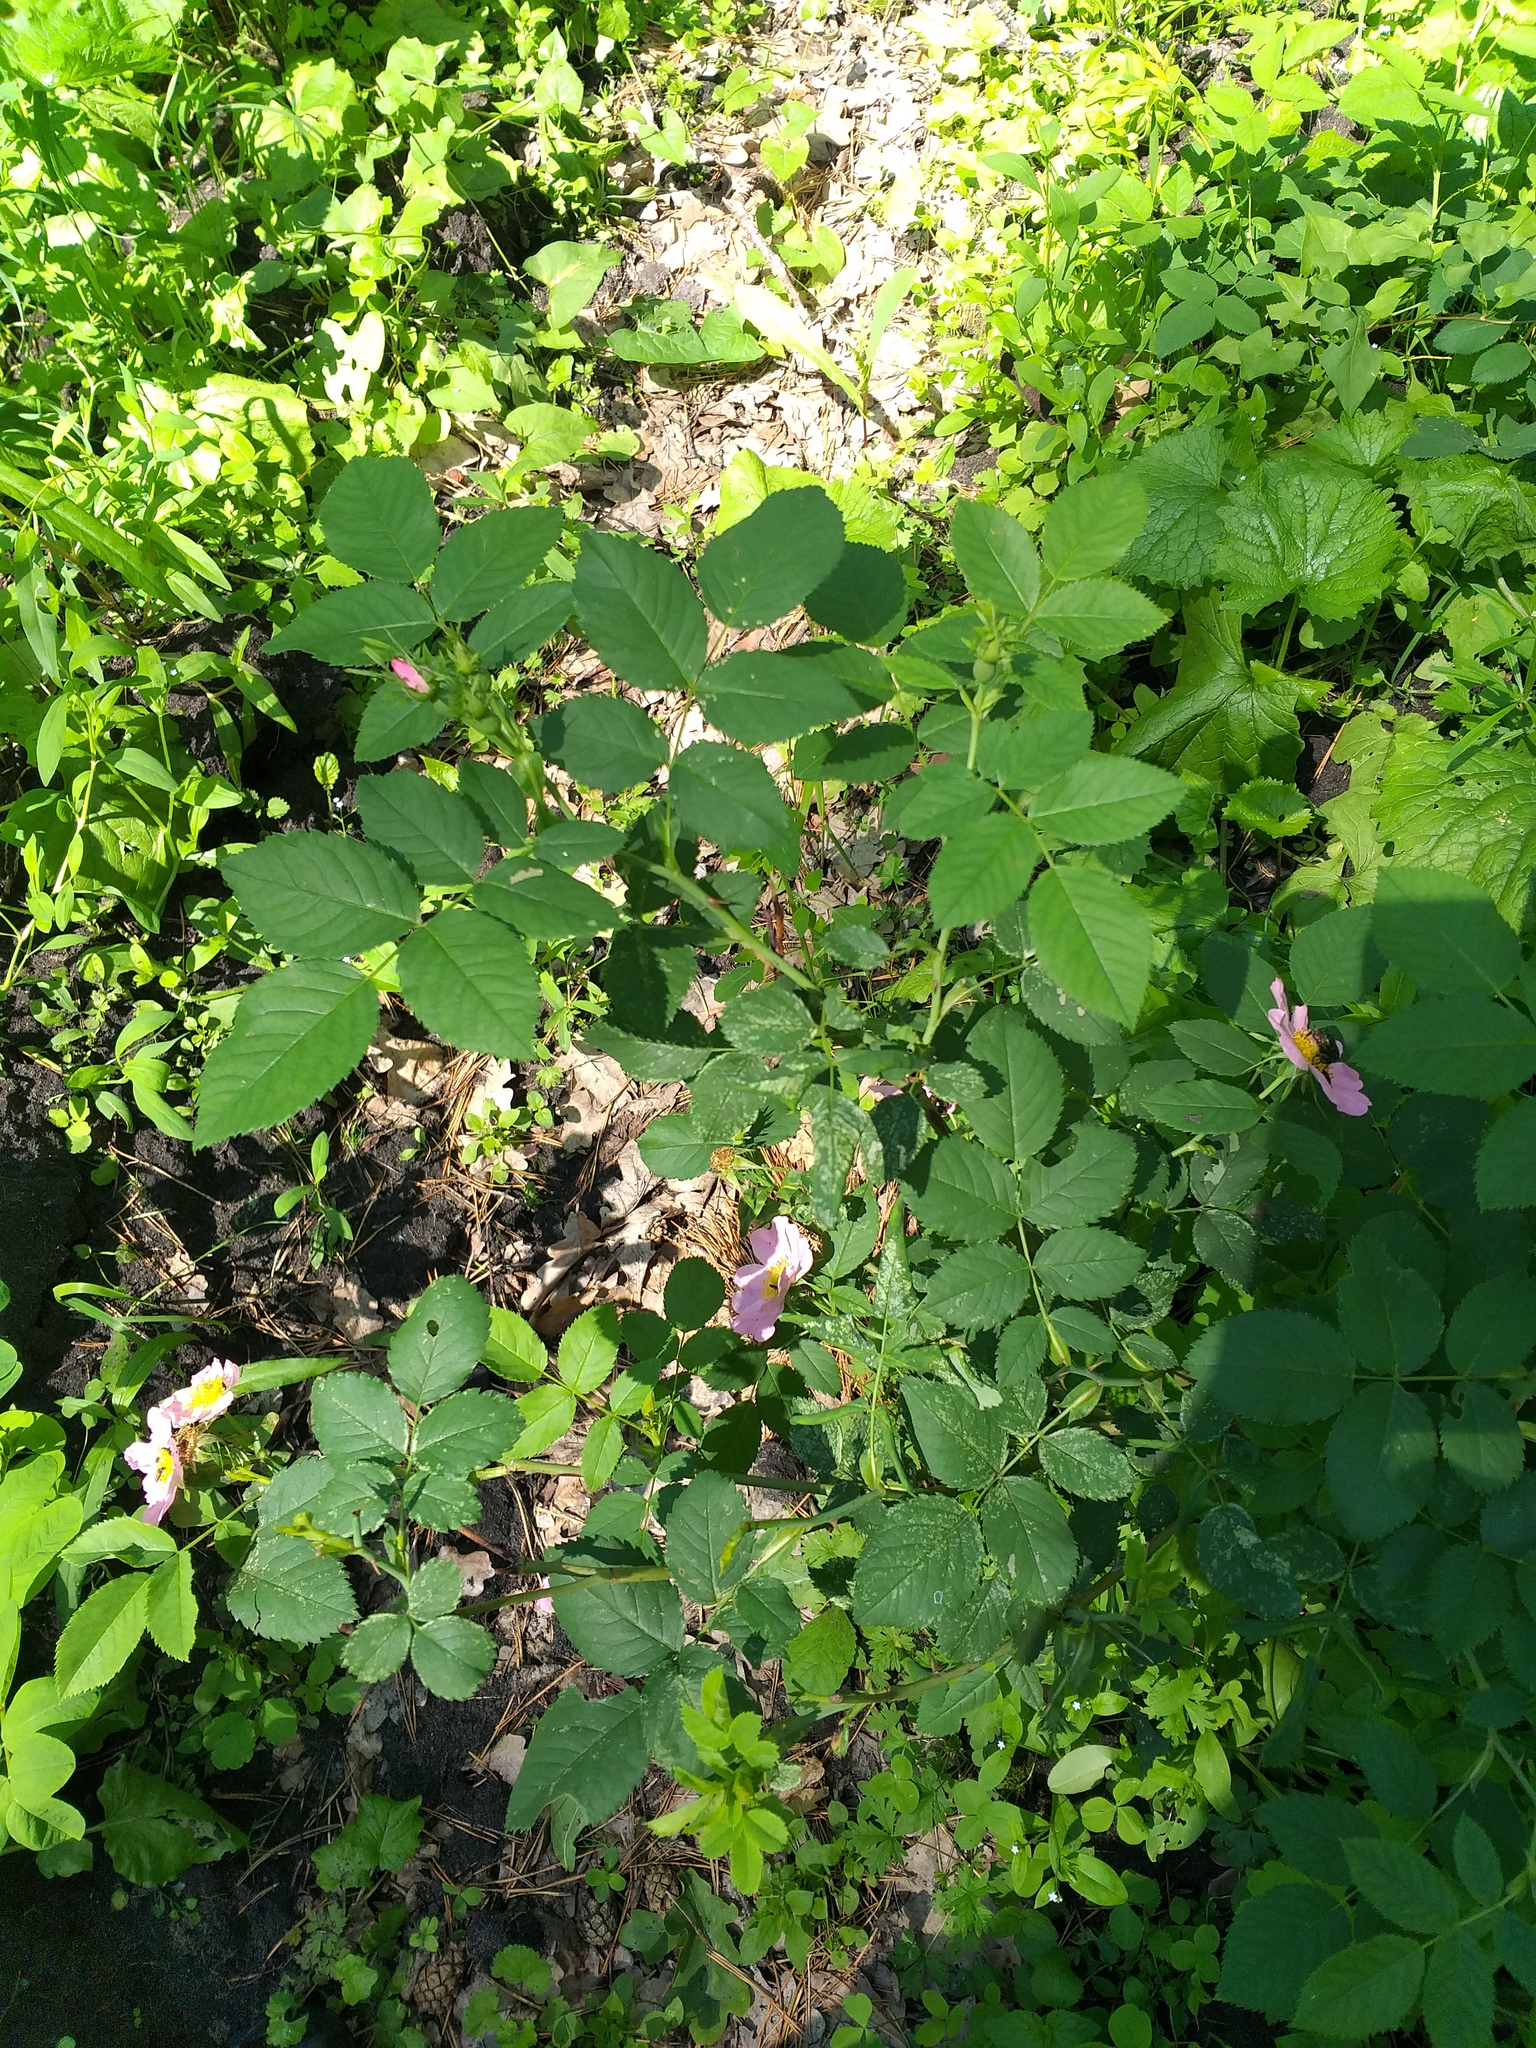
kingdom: Plantae
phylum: Tracheophyta
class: Magnoliopsida
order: Rosales
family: Rosaceae
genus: Rosa
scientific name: Rosa canina
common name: Dog rose
